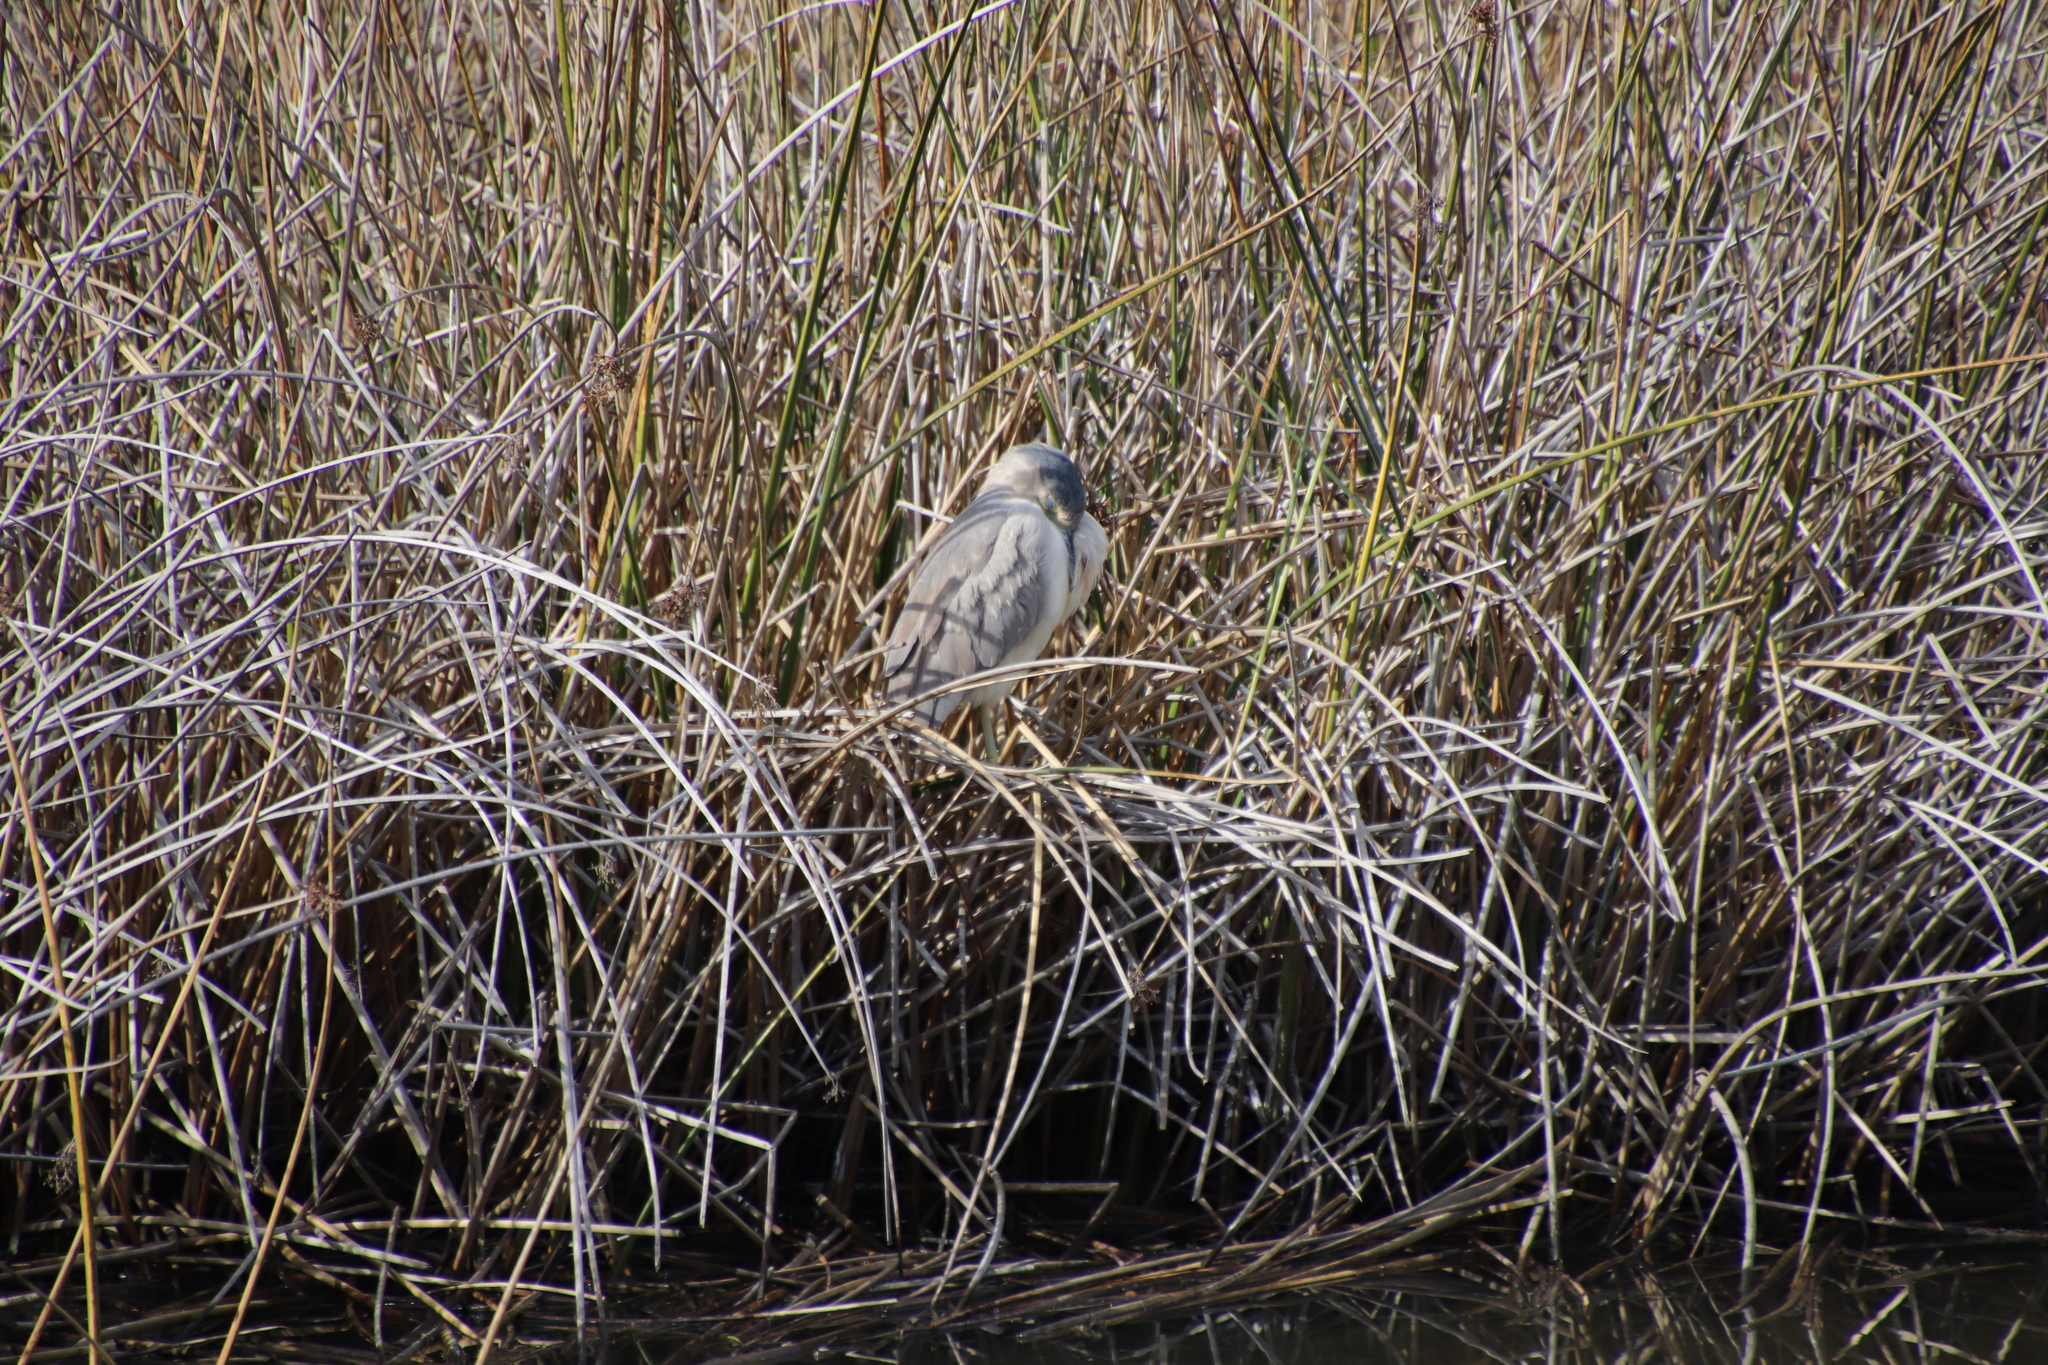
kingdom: Animalia
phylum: Chordata
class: Aves
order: Pelecaniformes
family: Ardeidae
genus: Nycticorax
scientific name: Nycticorax nycticorax
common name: Black-crowned night heron
